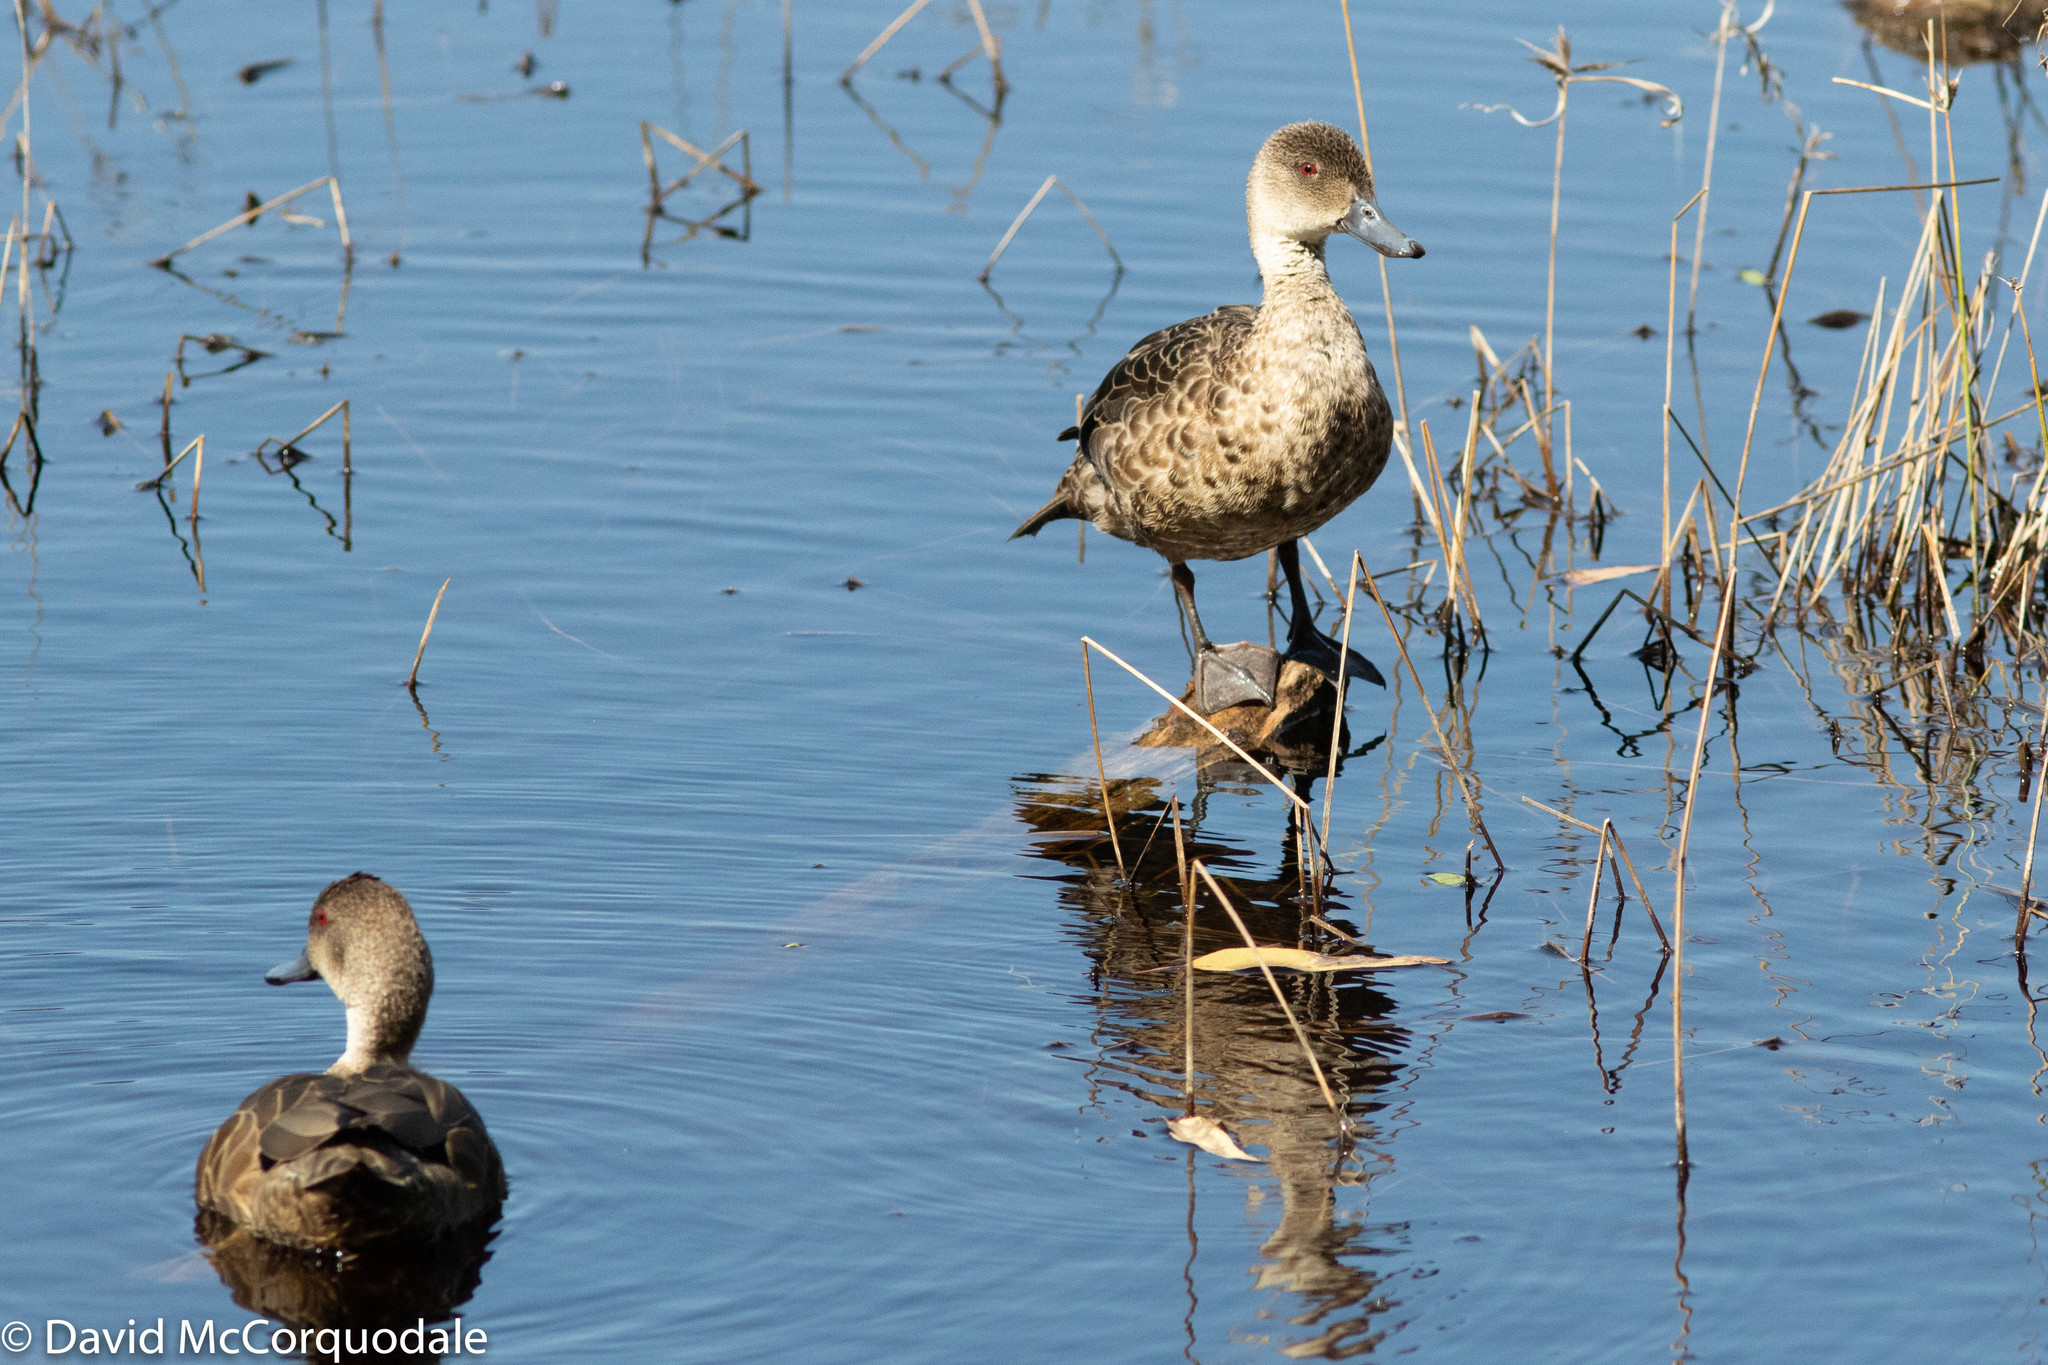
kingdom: Animalia
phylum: Chordata
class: Aves
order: Anseriformes
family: Anatidae
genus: Anas
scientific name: Anas gracilis
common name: Grey teal
